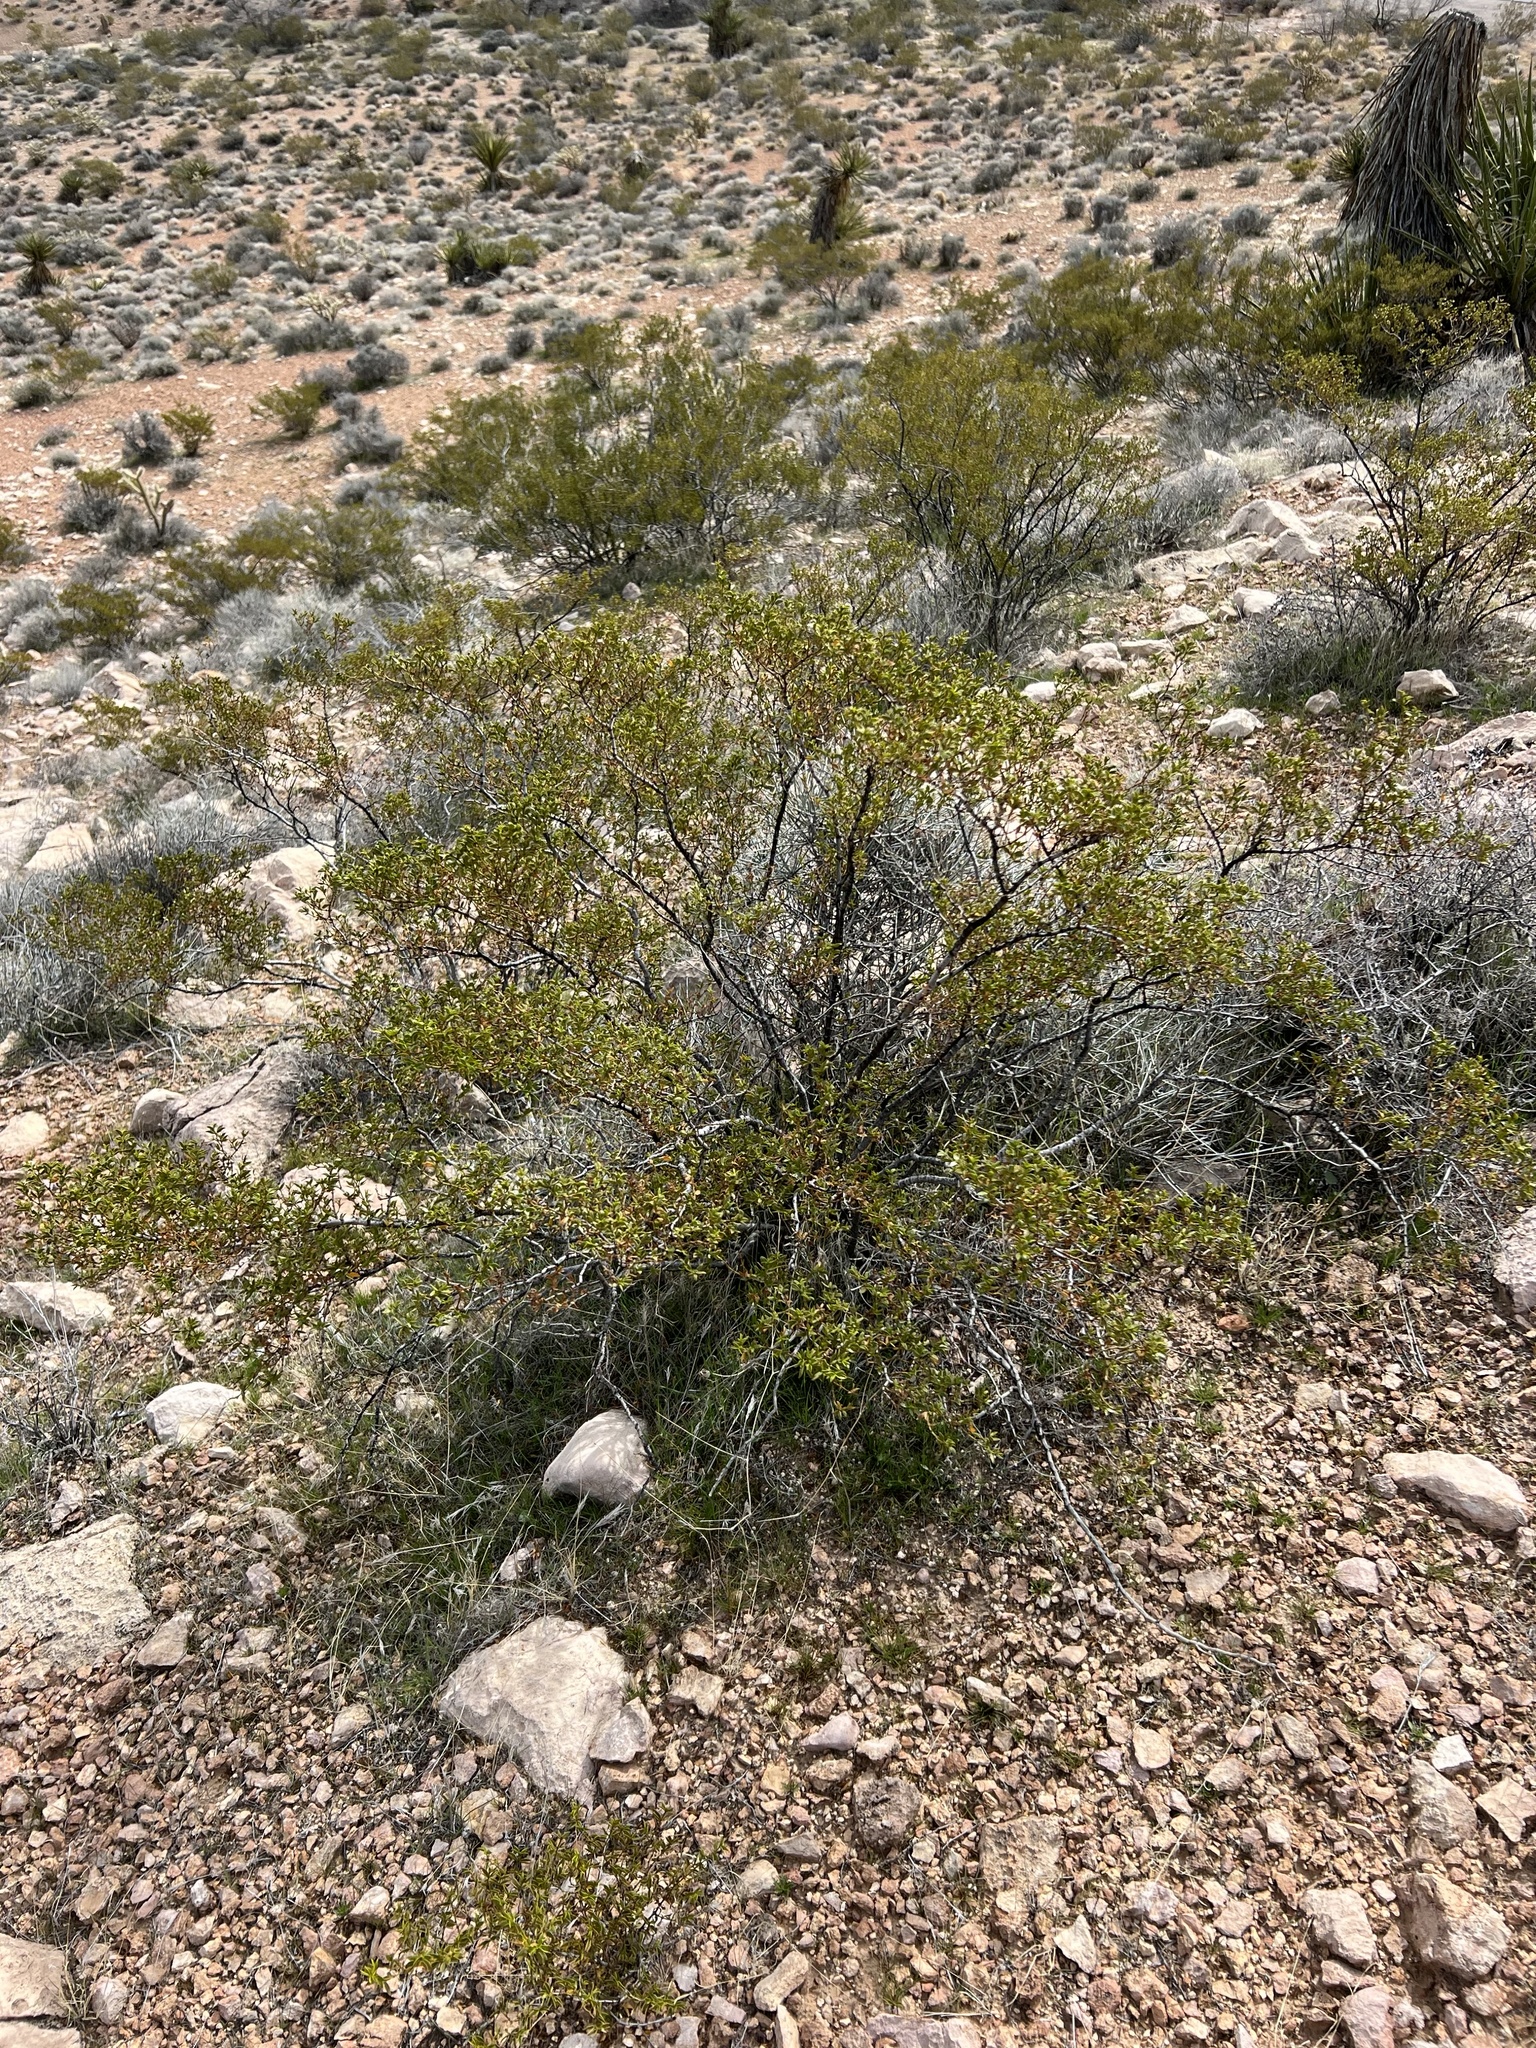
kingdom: Plantae
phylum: Tracheophyta
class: Magnoliopsida
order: Zygophyllales
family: Zygophyllaceae
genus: Larrea
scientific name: Larrea tridentata
